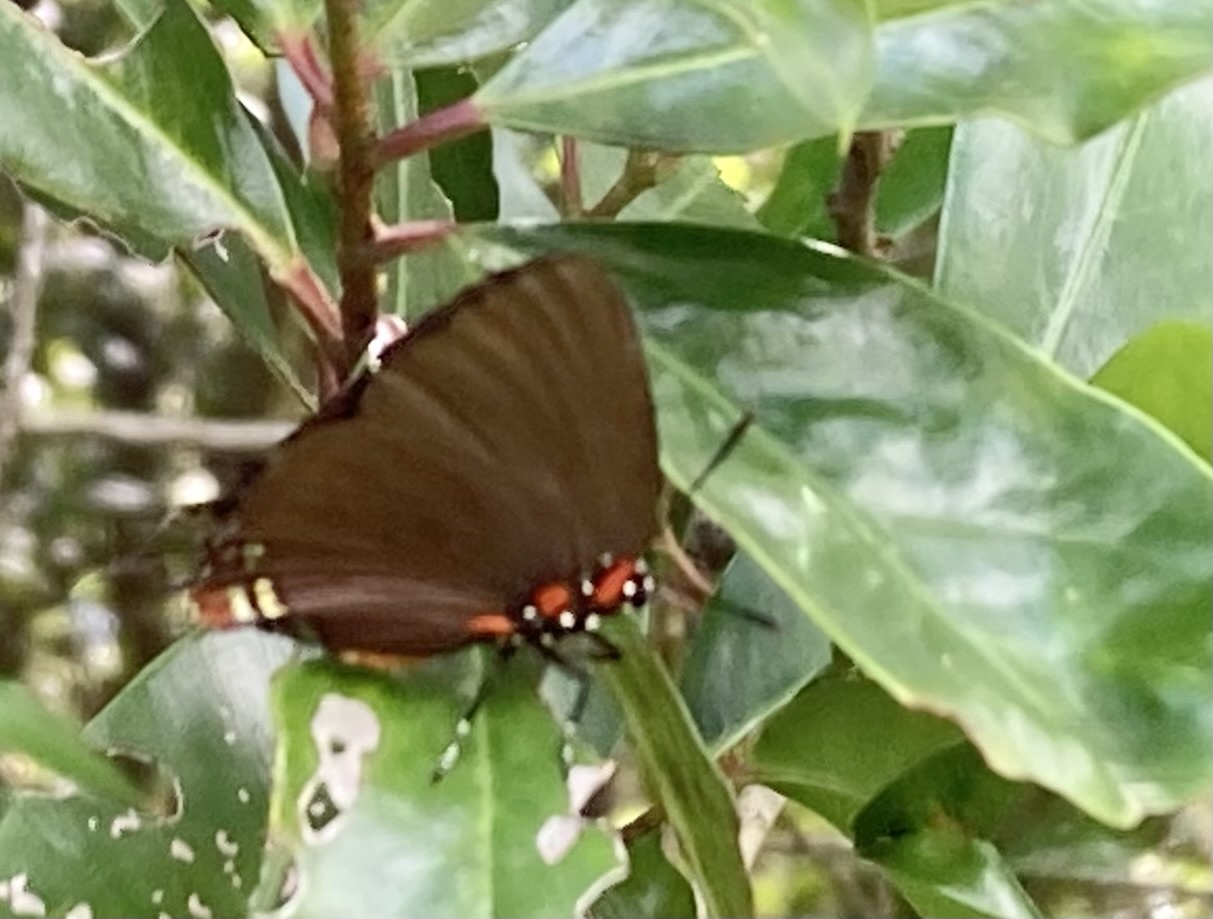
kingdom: Animalia
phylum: Arthropoda
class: Insecta
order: Lepidoptera
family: Lycaenidae
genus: Atlides
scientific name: Atlides halesus
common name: Great purple hairstreak
